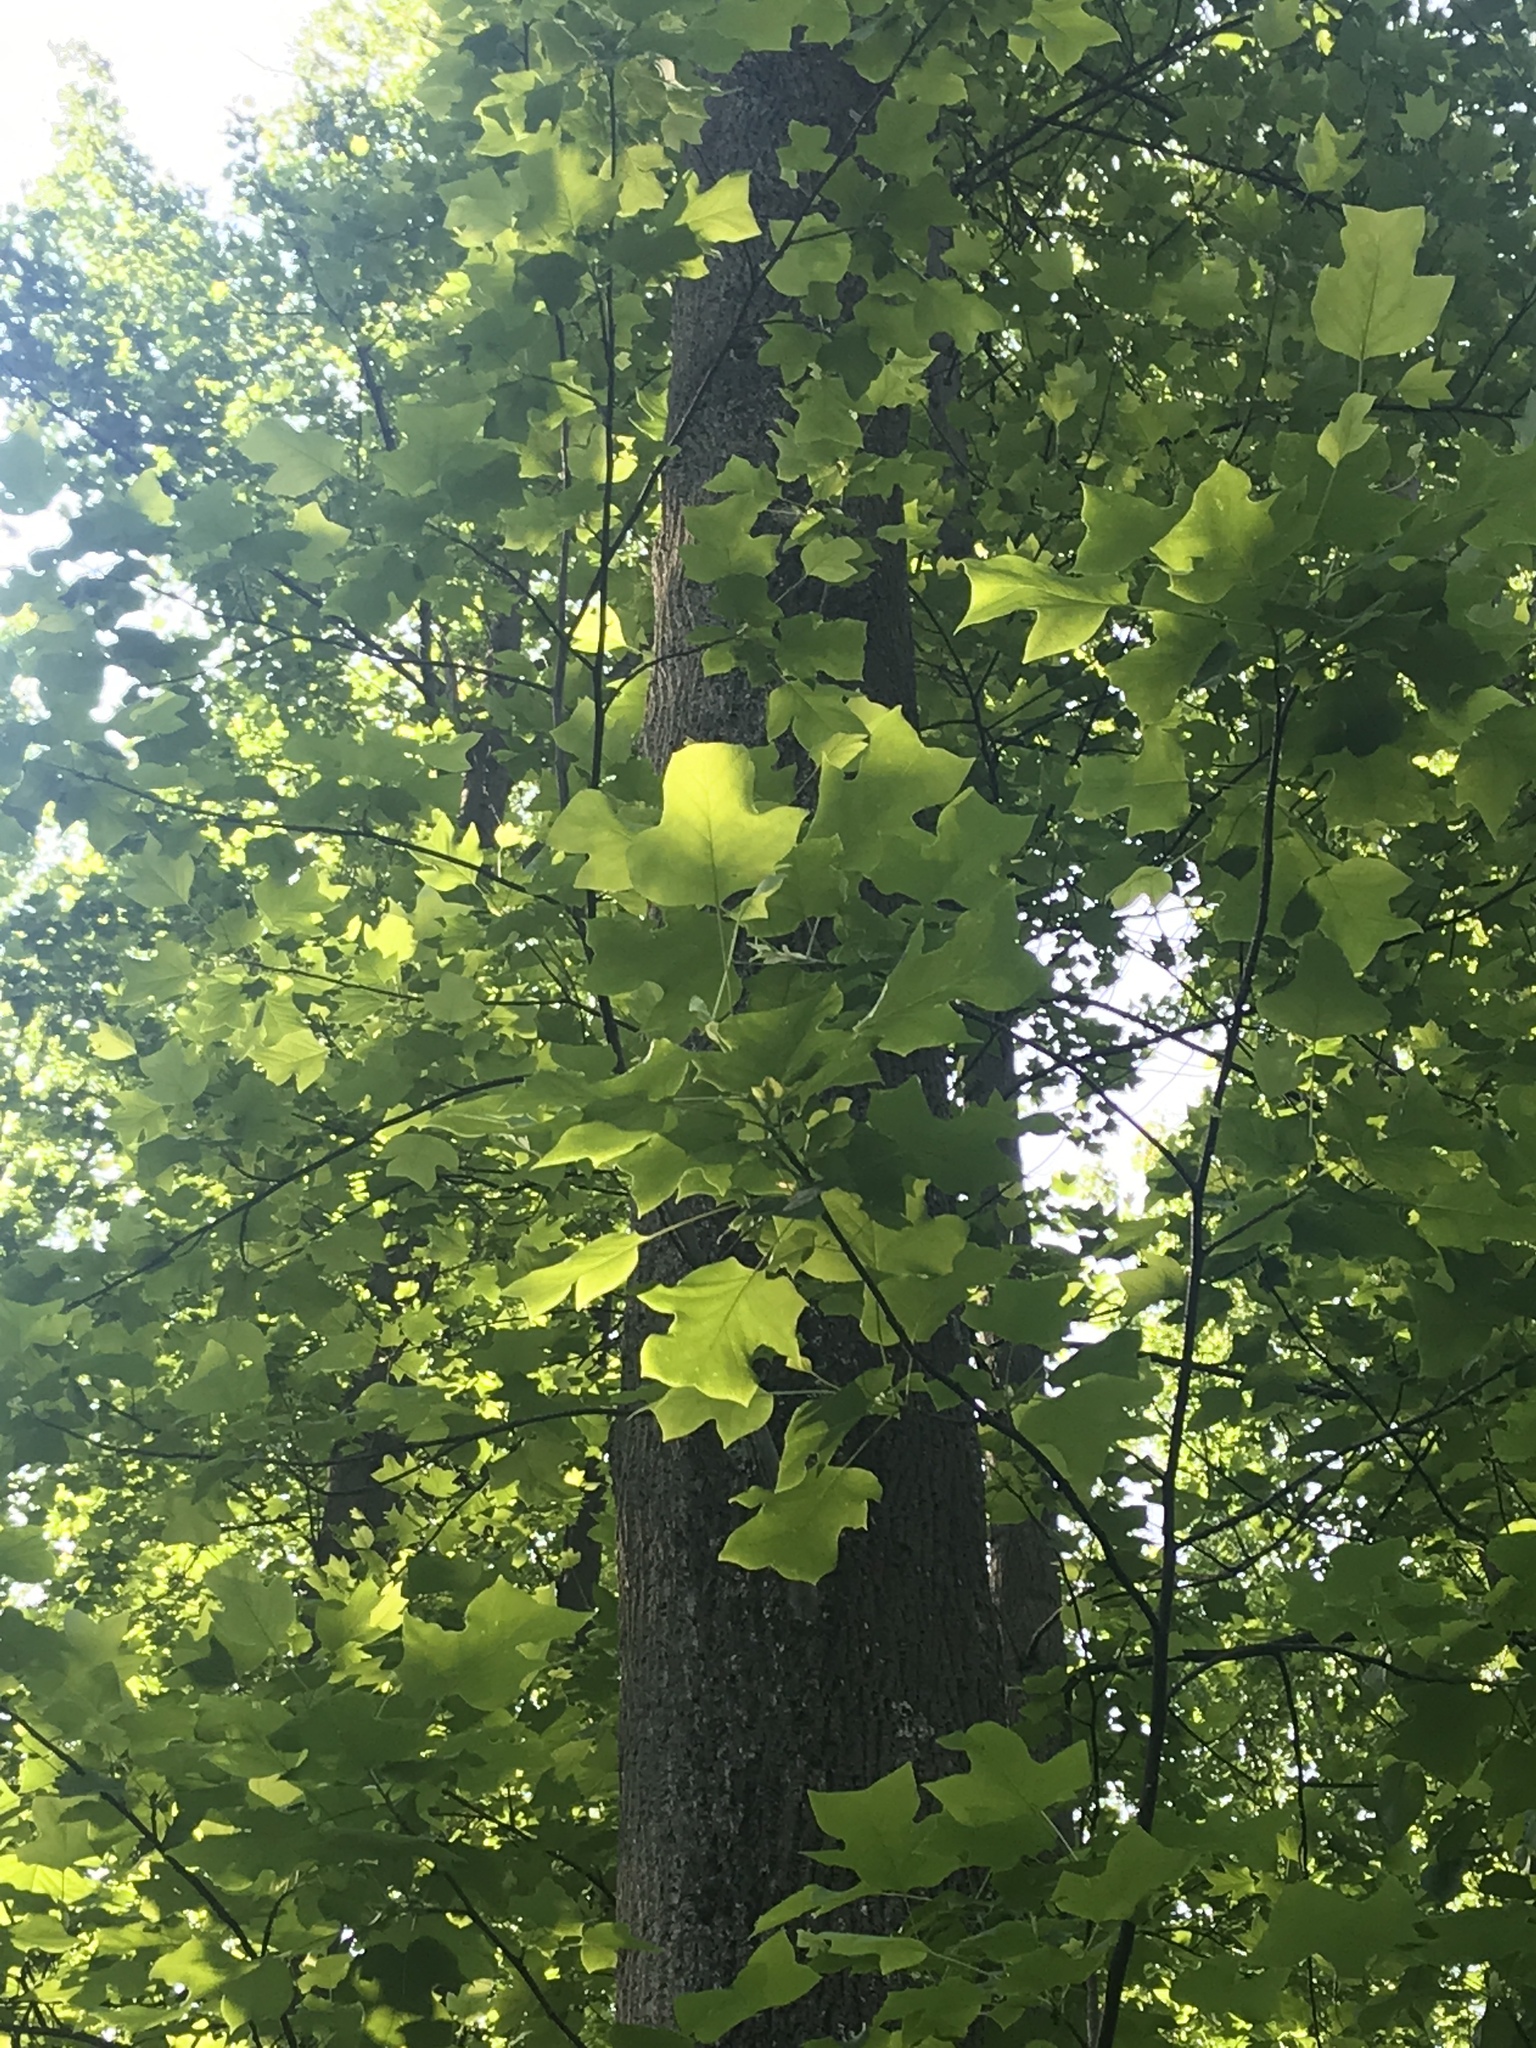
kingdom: Plantae
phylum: Tracheophyta
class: Magnoliopsida
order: Magnoliales
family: Magnoliaceae
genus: Liriodendron
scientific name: Liriodendron tulipifera
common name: Tulip tree
